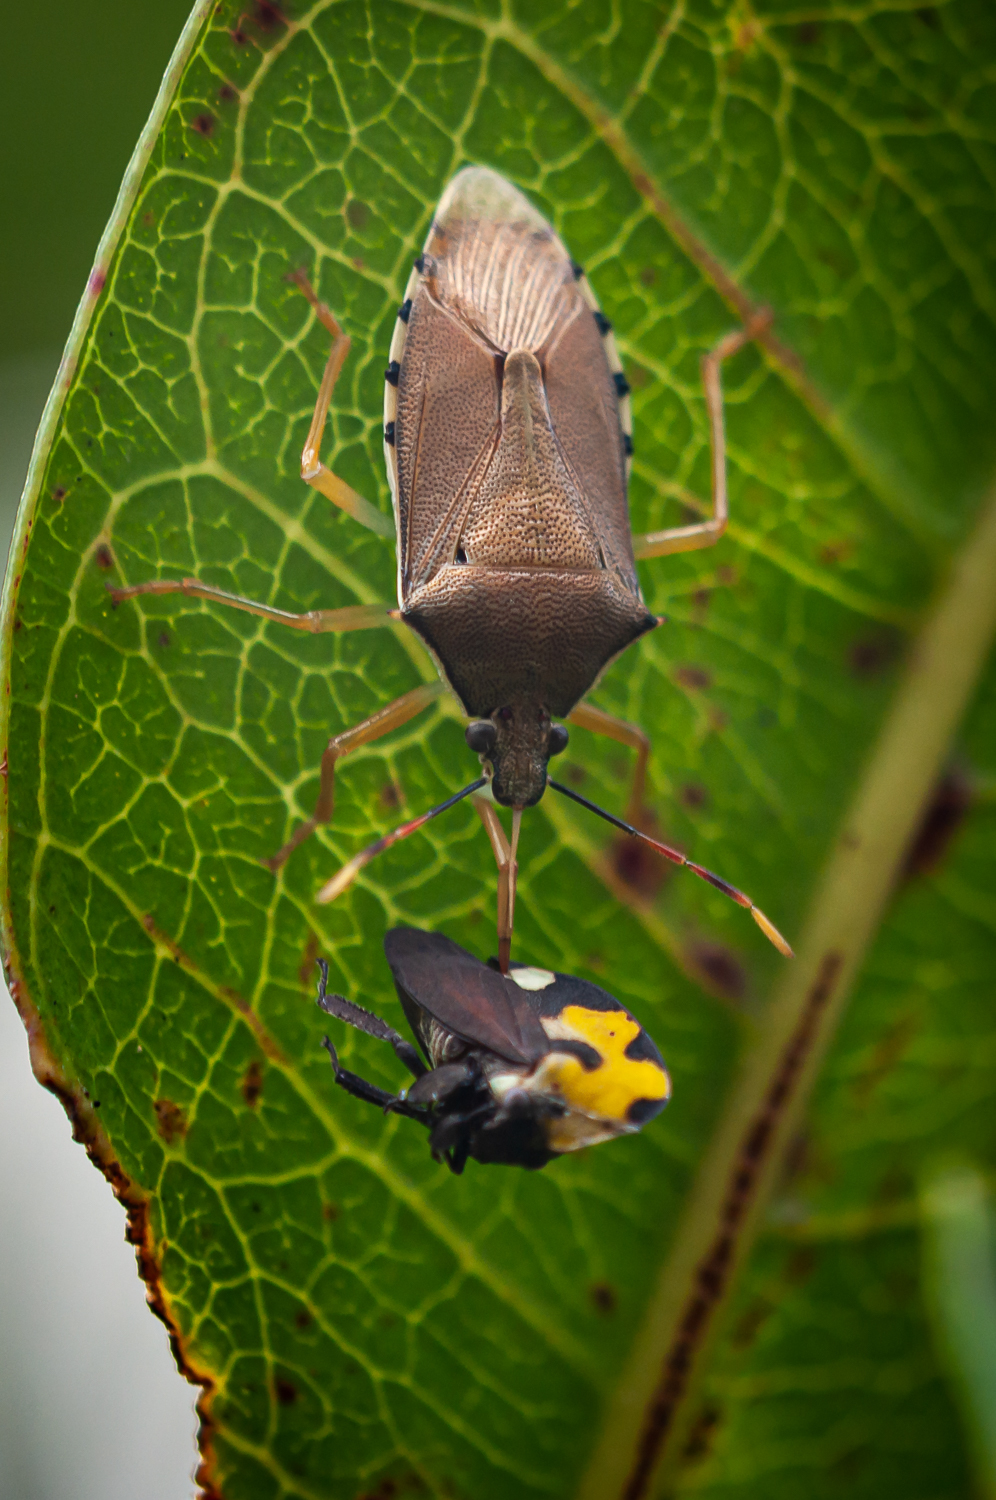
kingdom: Animalia
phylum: Arthropoda
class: Insecta
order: Hemiptera
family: Pentatomidae
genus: Supputius
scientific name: Supputius
